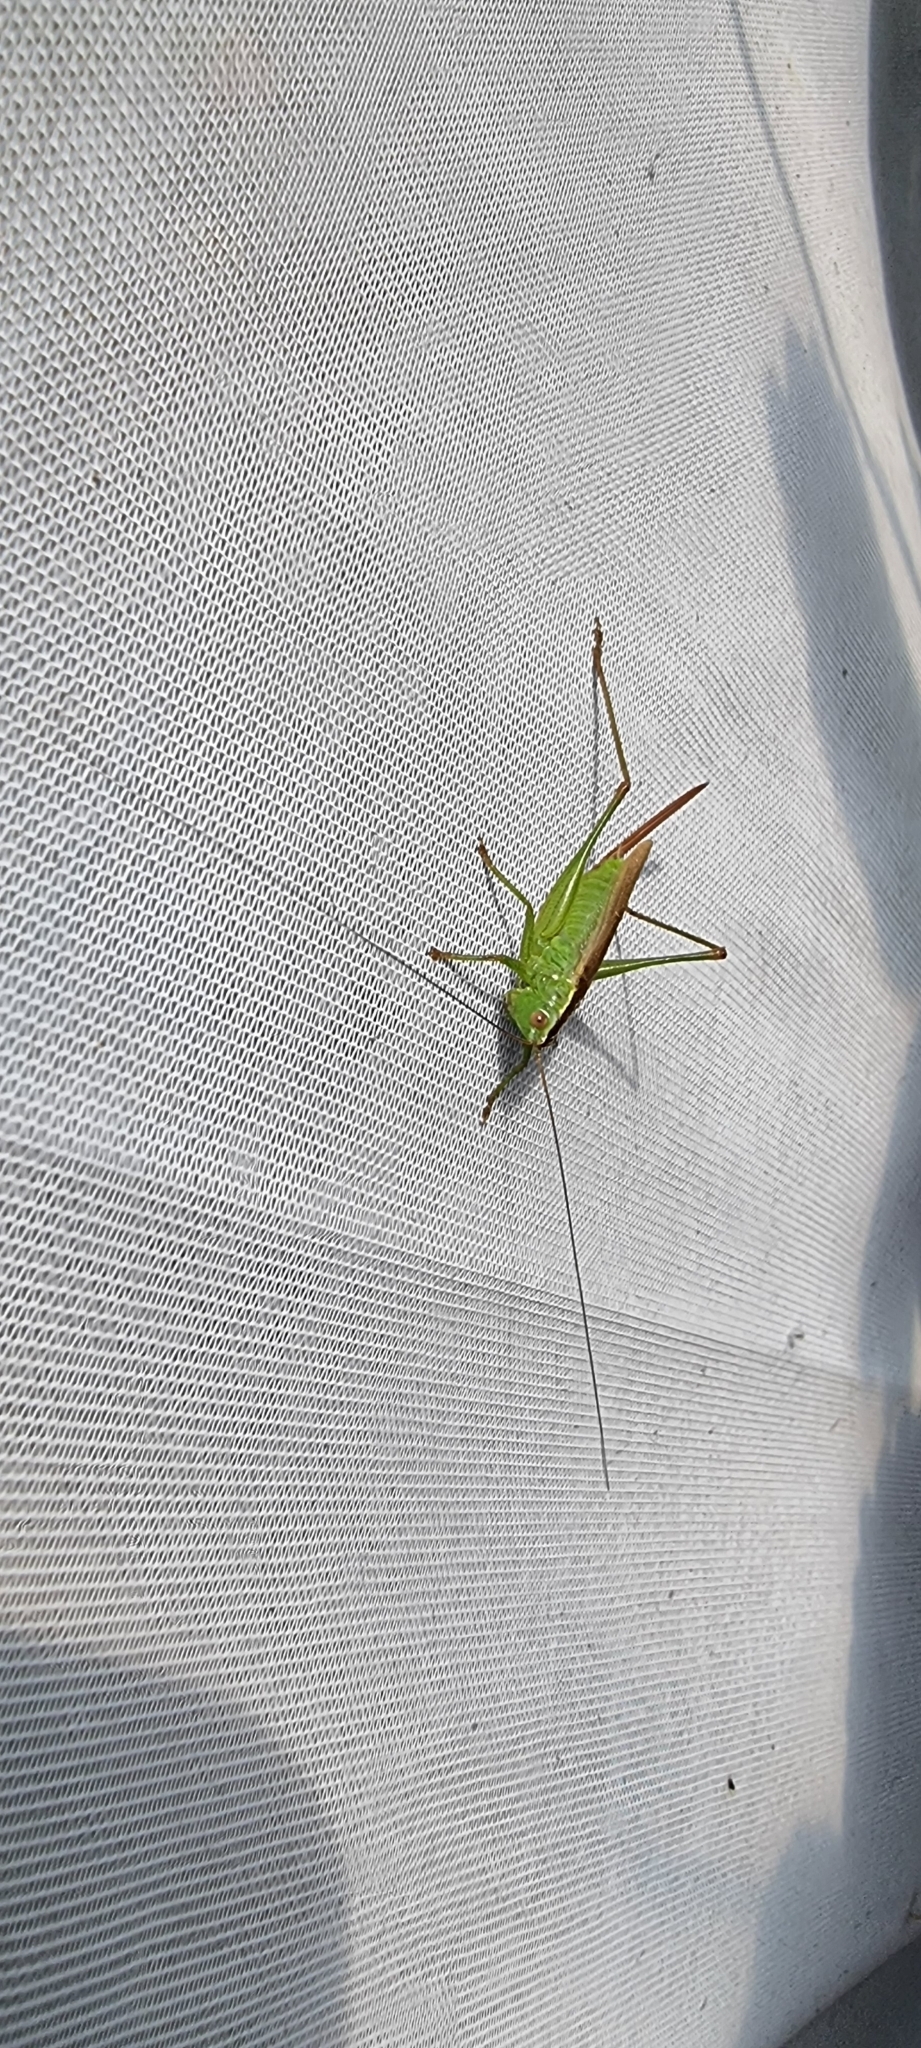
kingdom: Animalia
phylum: Arthropoda
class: Insecta
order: Orthoptera
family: Tettigoniidae
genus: Conocephalus
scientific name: Conocephalus fuscus
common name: Long-winged conehead
